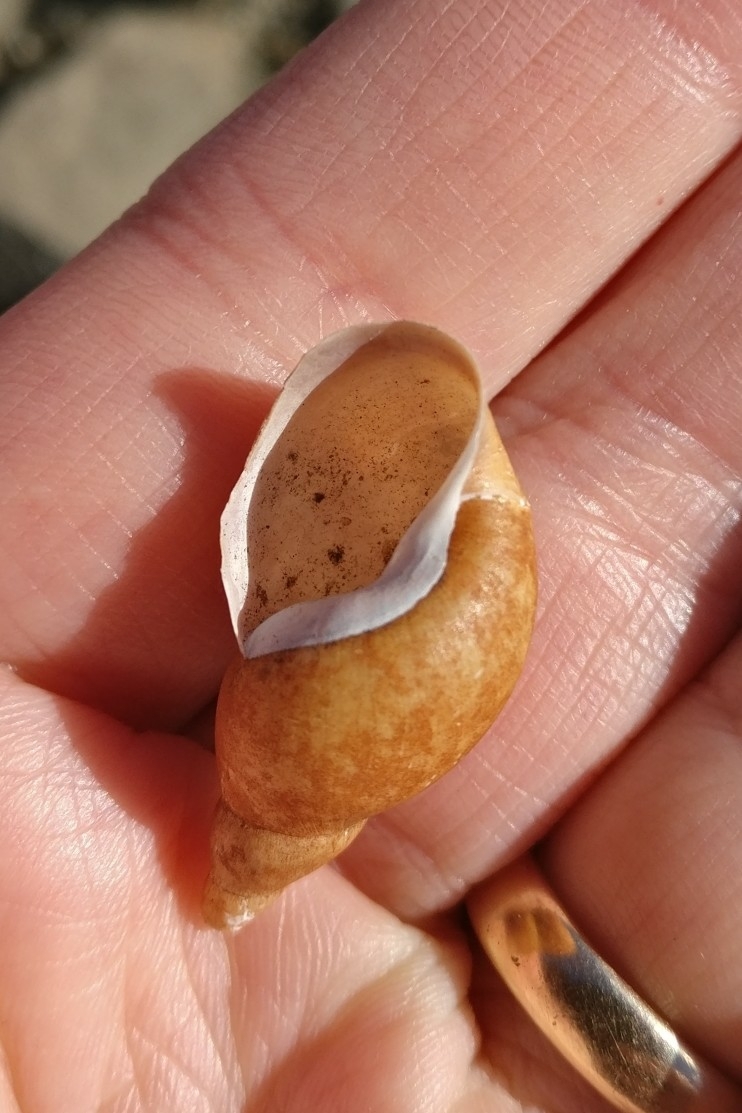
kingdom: Animalia
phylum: Mollusca
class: Gastropoda
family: Lymnaeidae
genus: Lymnaea
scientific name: Lymnaea stagnalis
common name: Great pond snail
